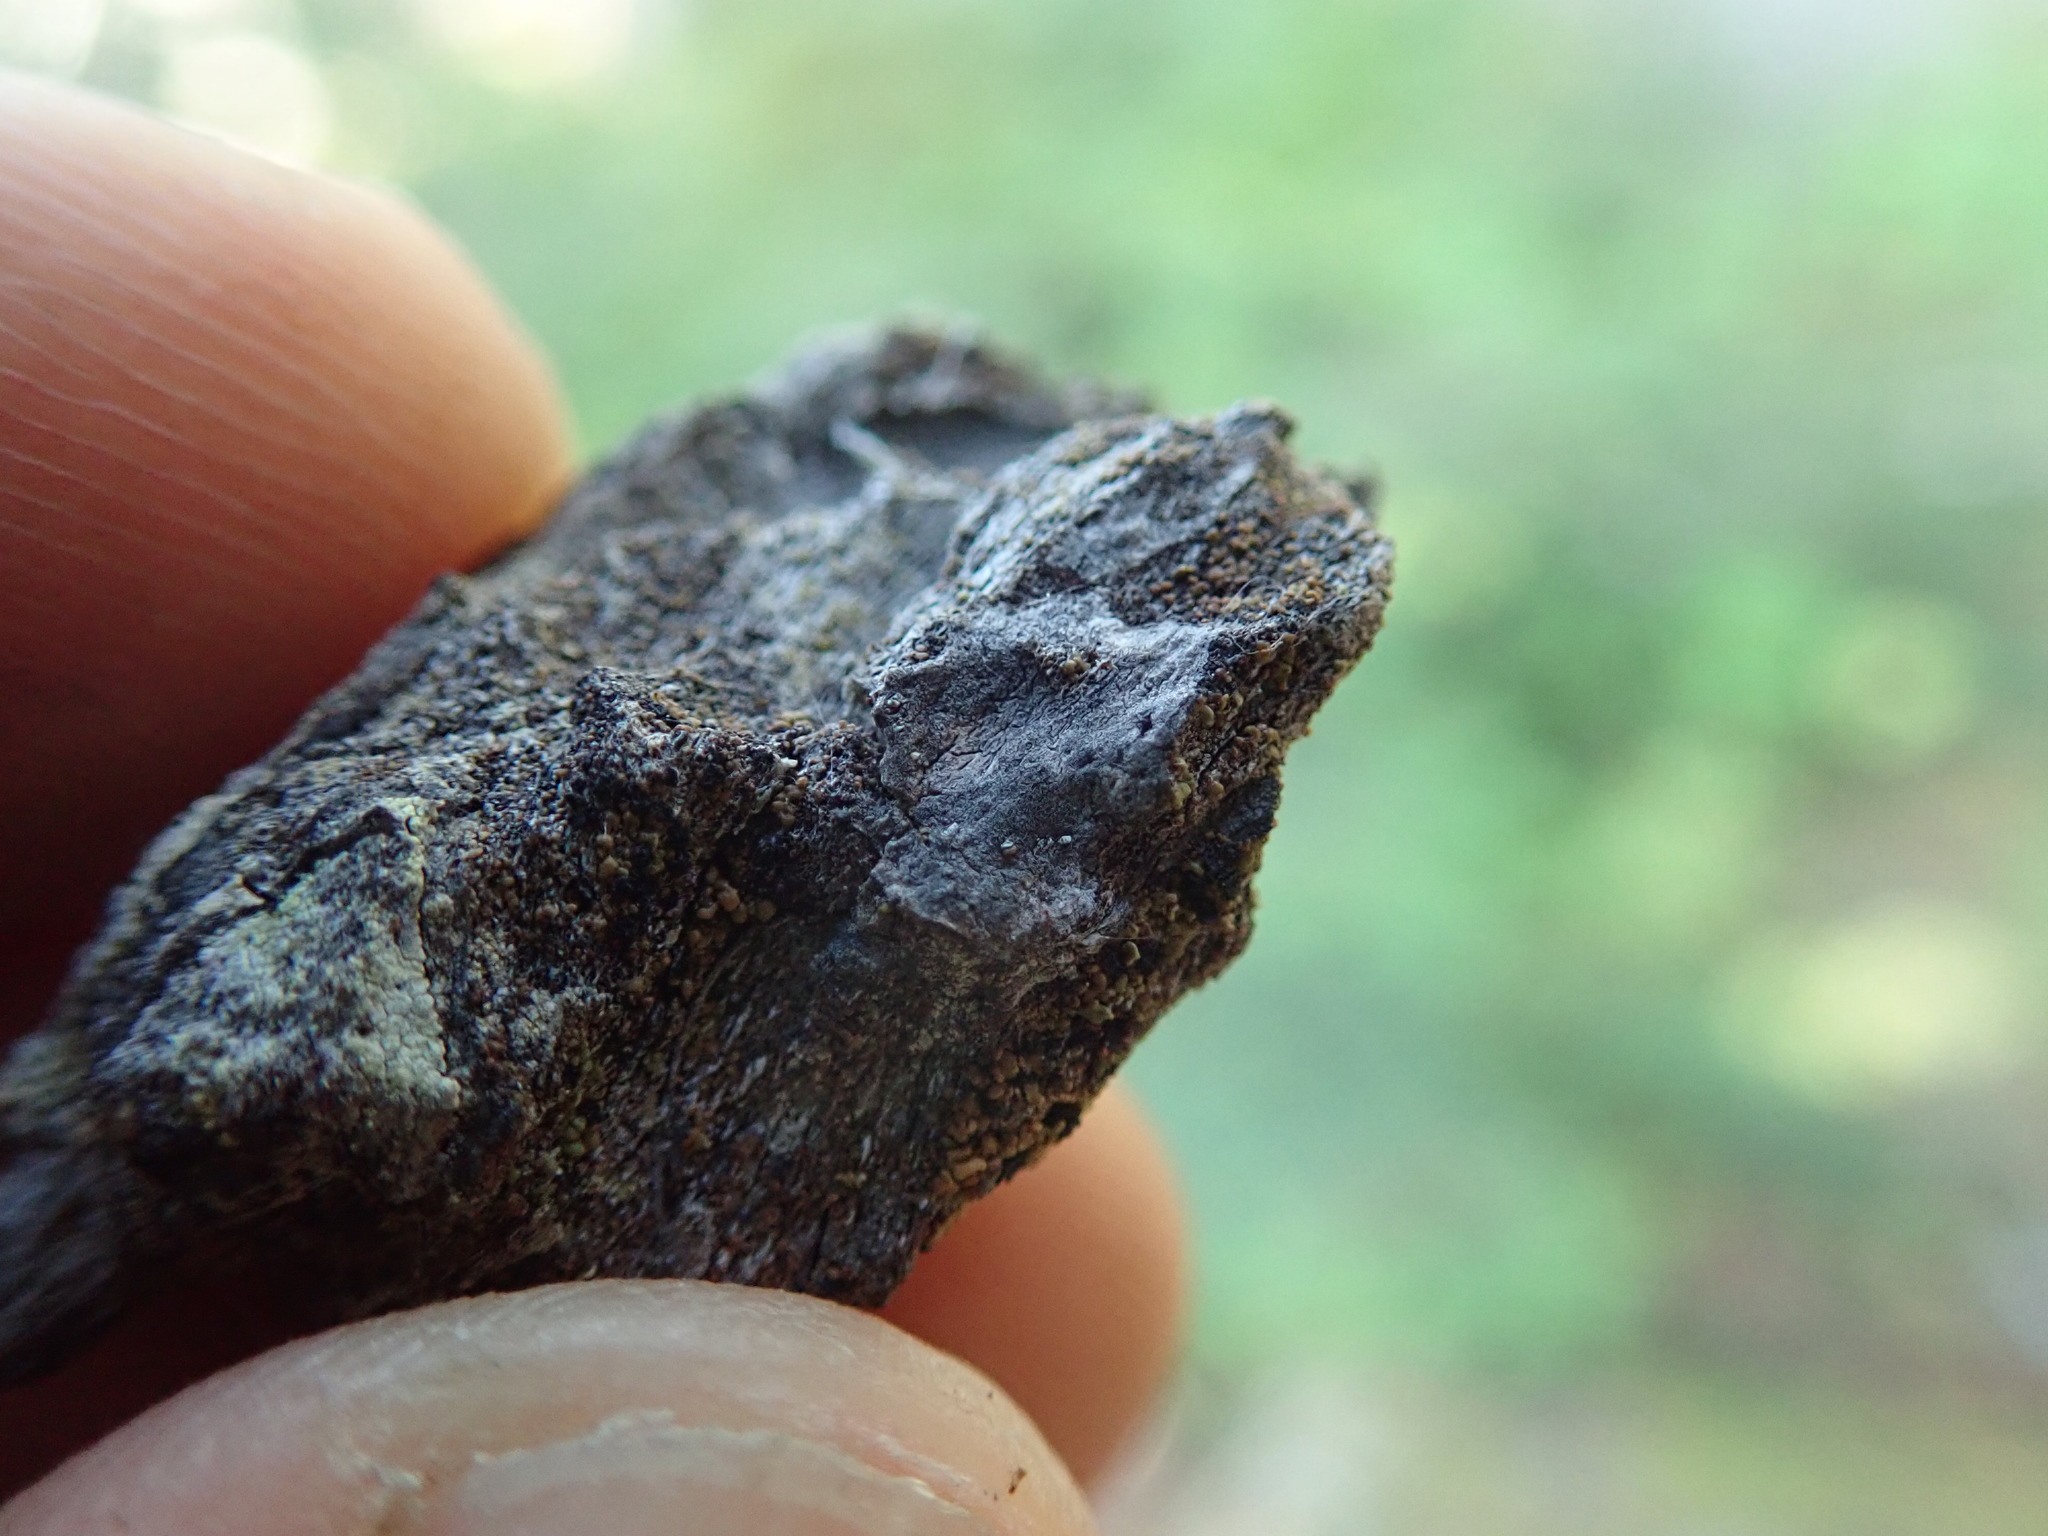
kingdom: Fungi
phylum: Ascomycota
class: Lecanoromycetes
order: Umbilicariales
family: Ophioparmaceae
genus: Hypocenomyce
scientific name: Hypocenomyce scalaris
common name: Common clam lichen
